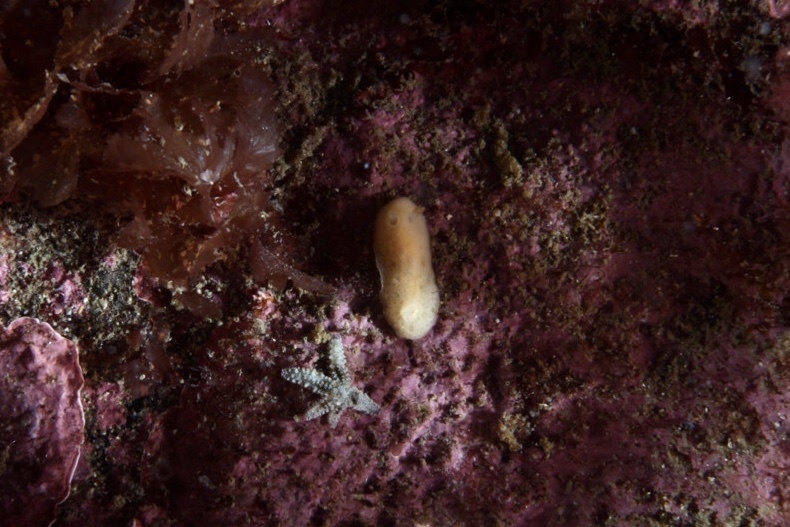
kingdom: Animalia
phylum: Mollusca
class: Gastropoda
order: Nudibranchia
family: Discodorididae
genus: Jorunna
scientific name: Jorunna tomentosa
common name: Grey sea slug
